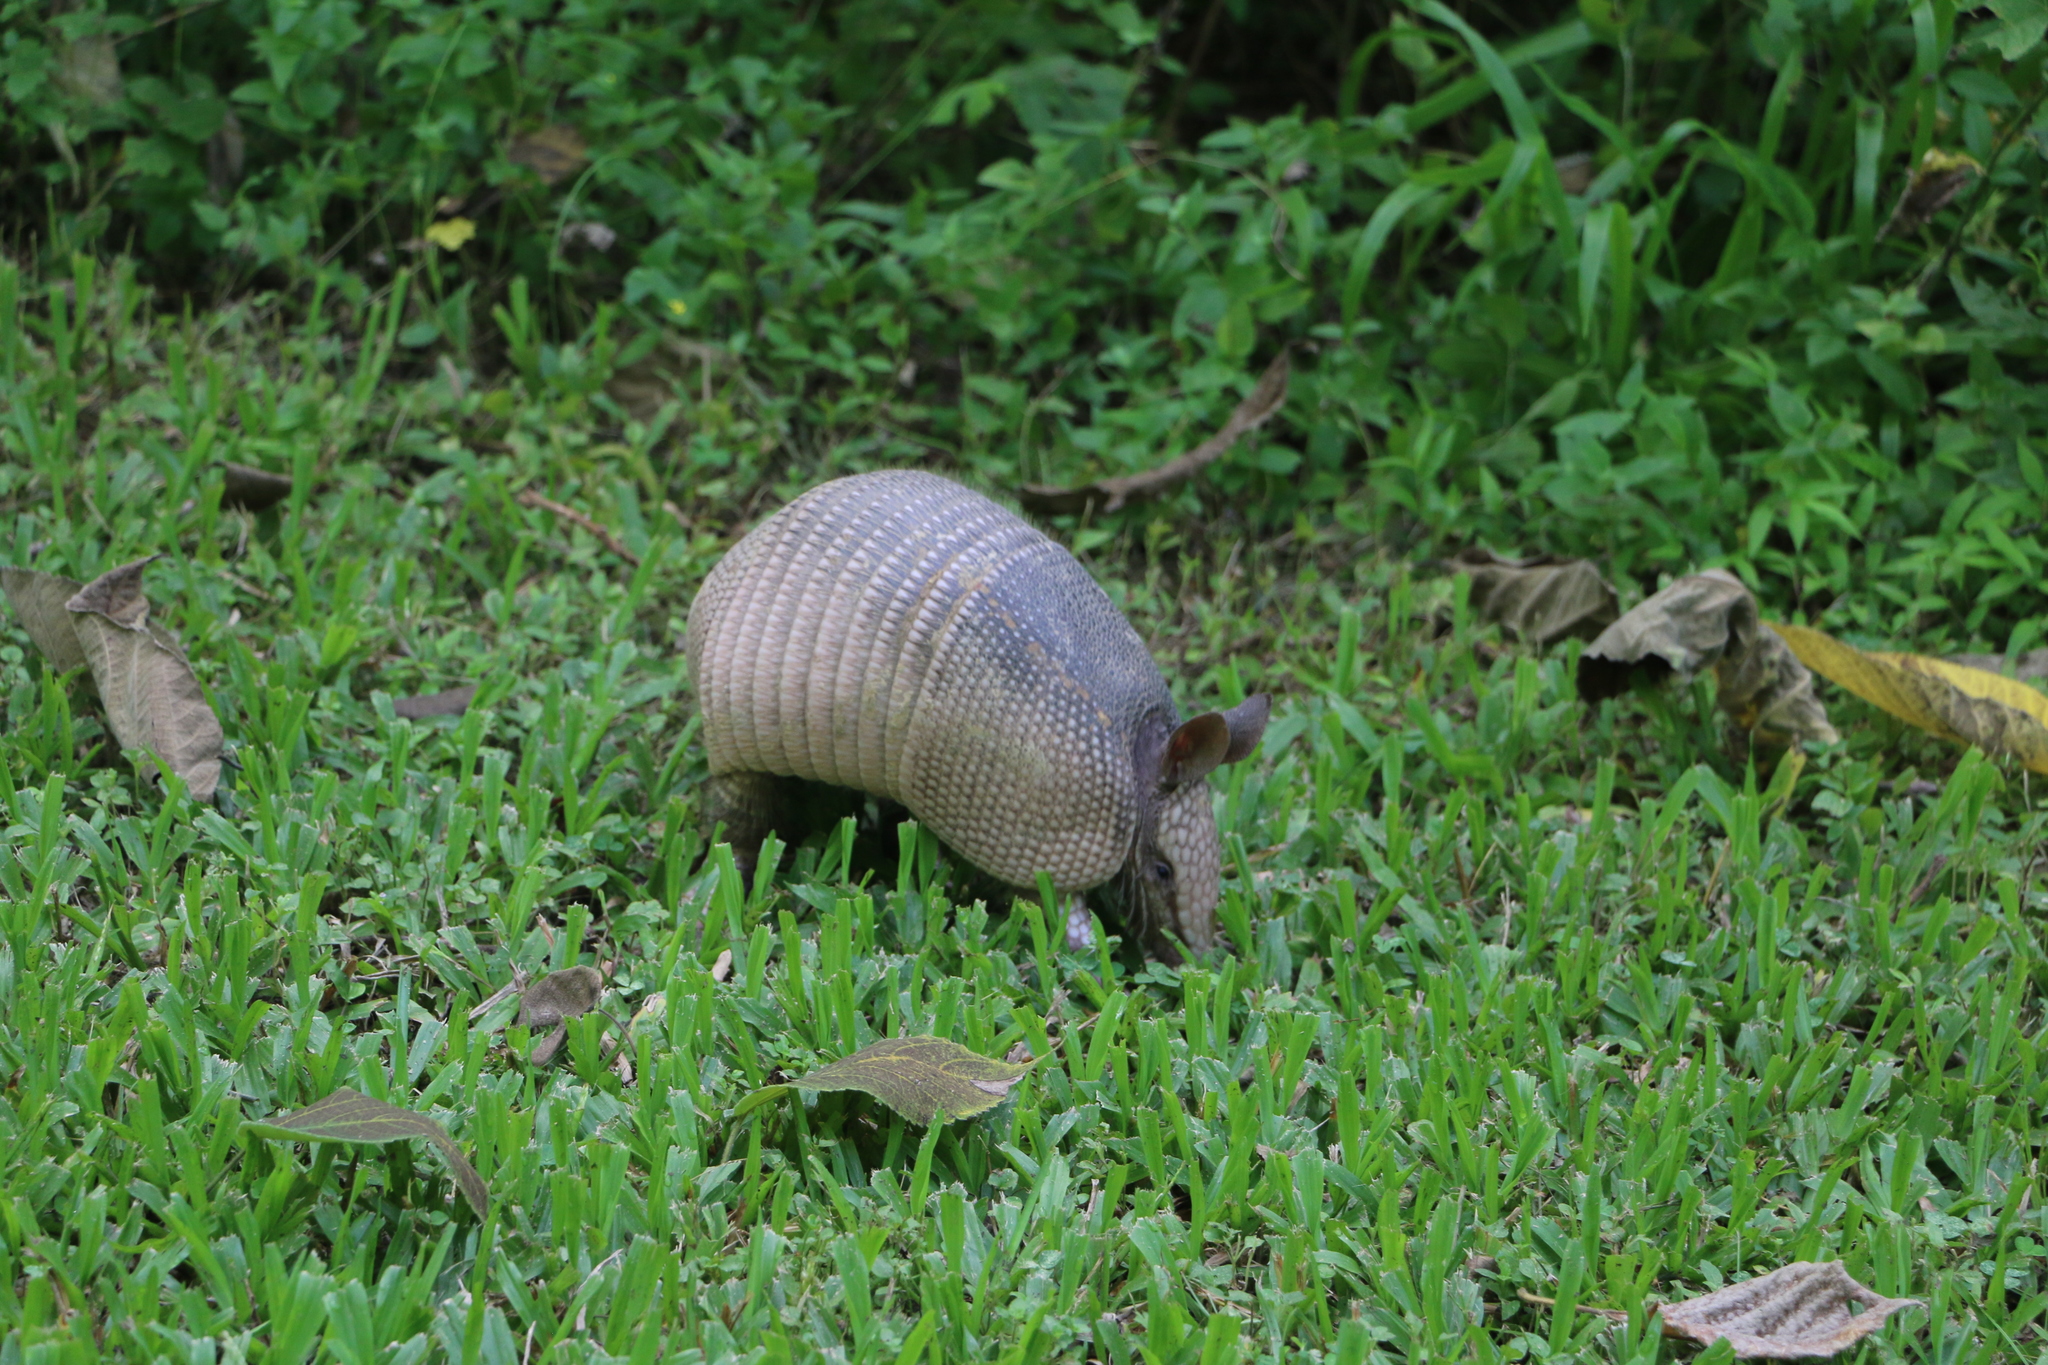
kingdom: Animalia
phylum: Chordata
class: Mammalia
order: Cingulata
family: Dasypodidae
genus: Dasypus
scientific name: Dasypus novemcinctus
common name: Nine-banded armadillo
